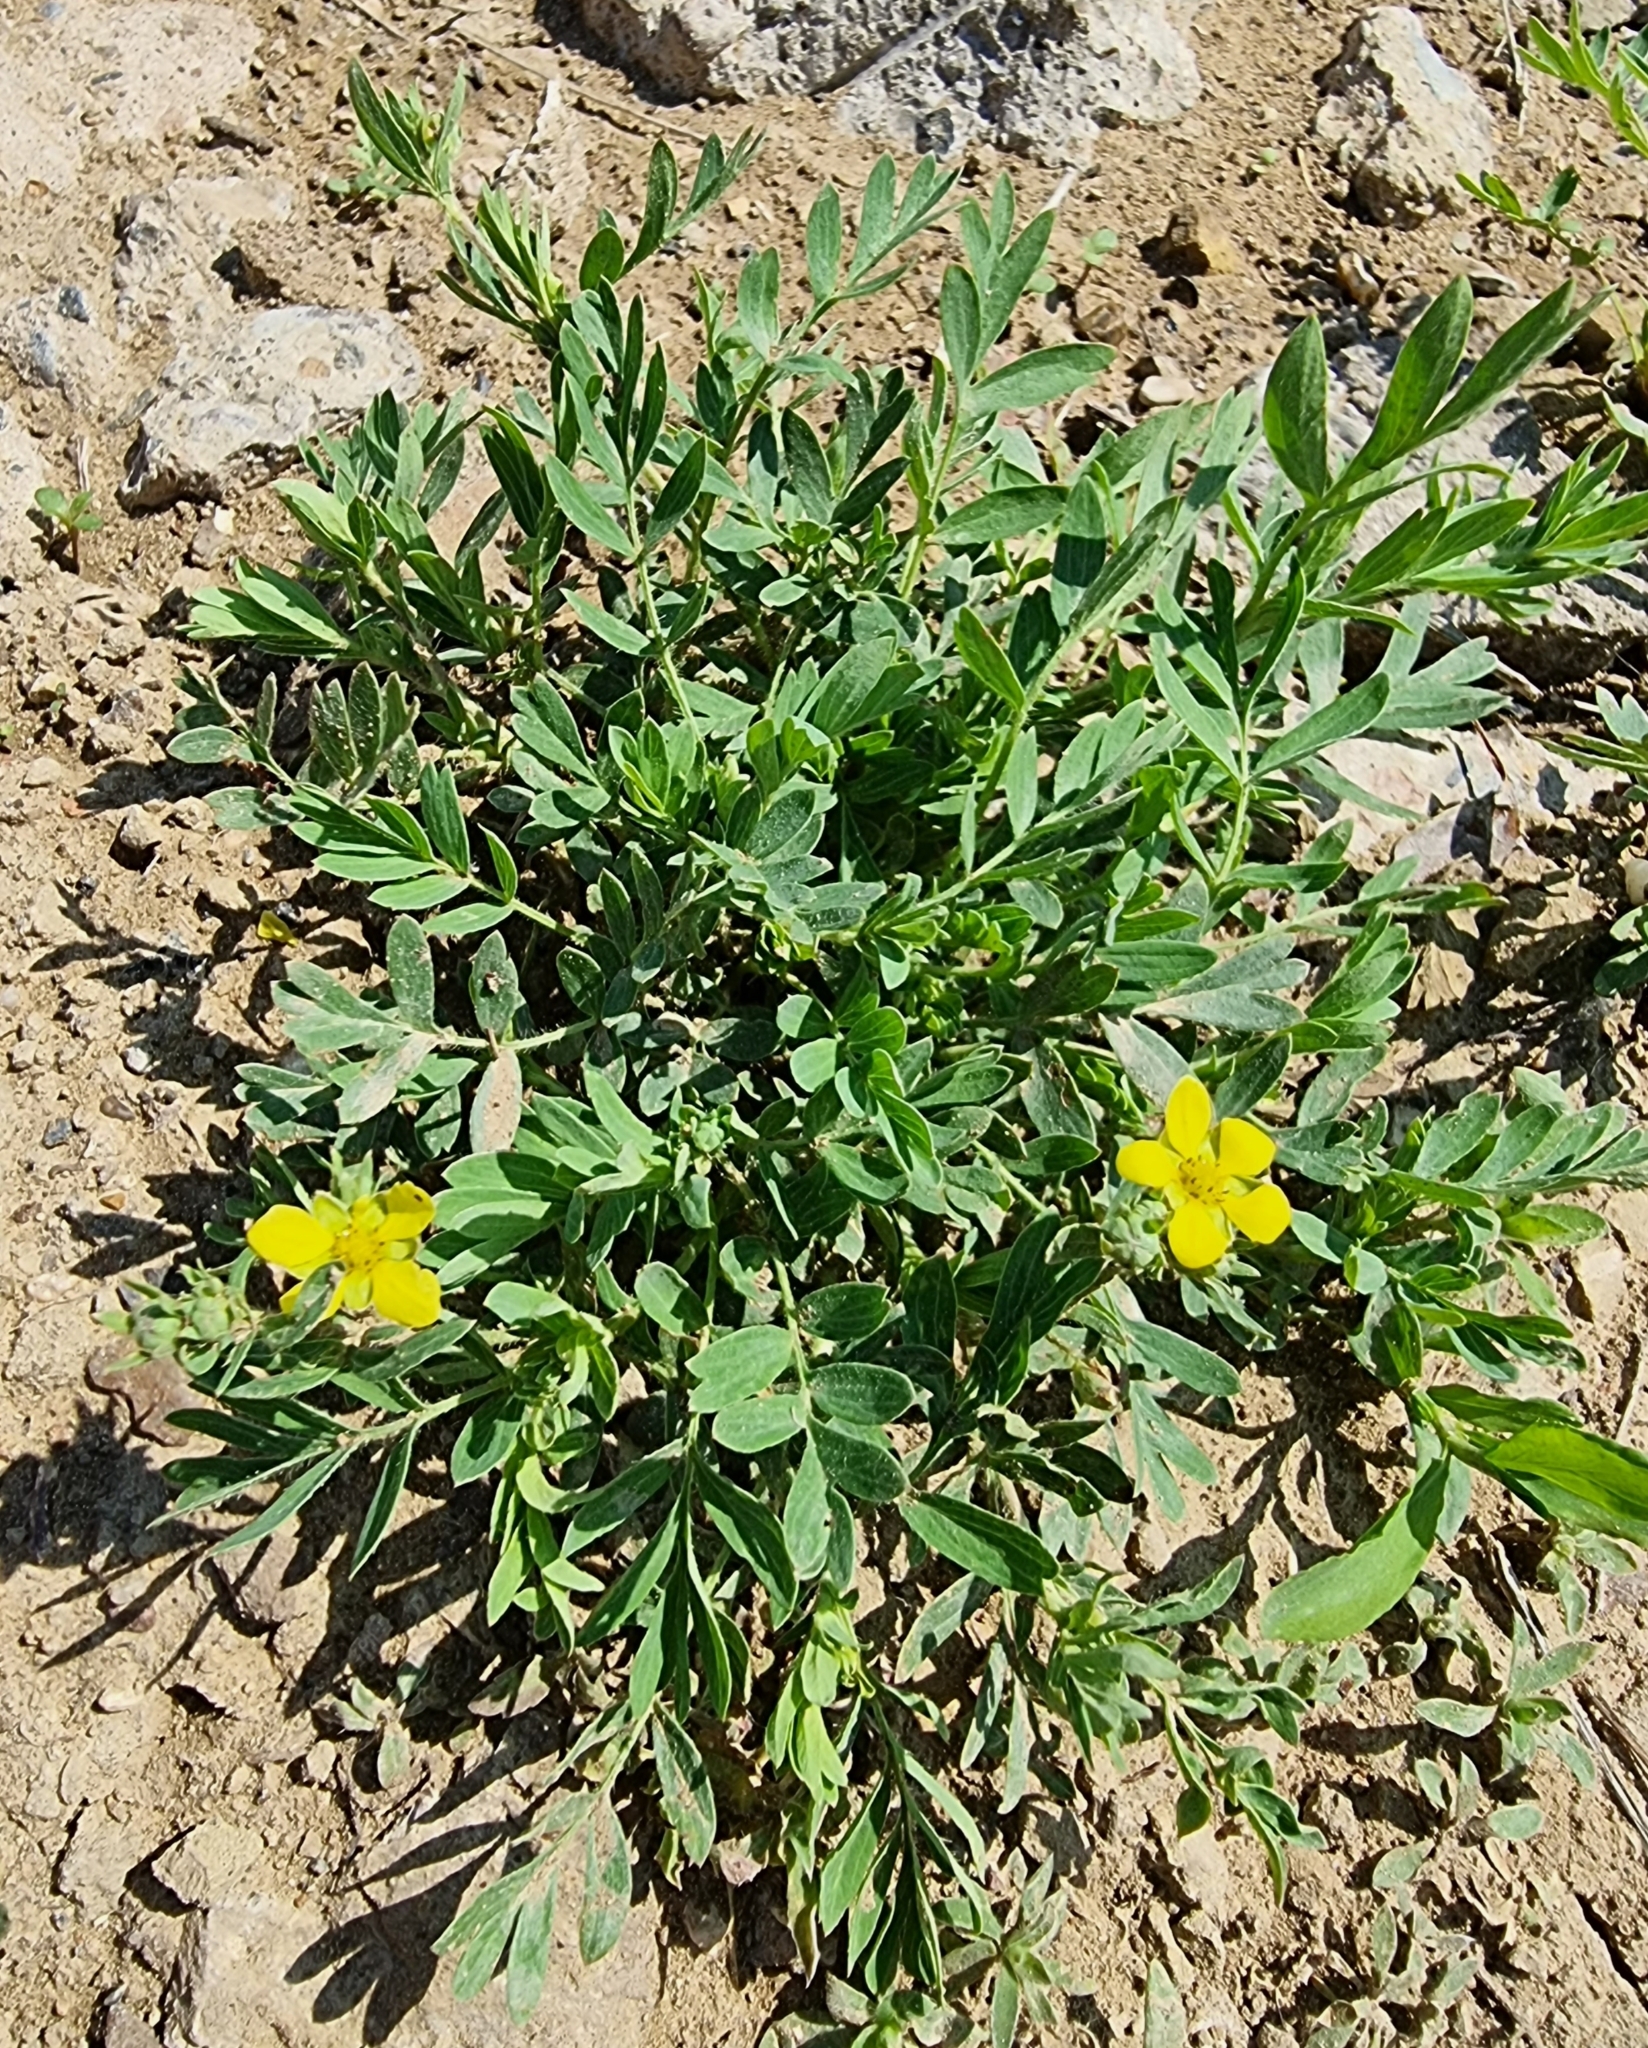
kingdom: Plantae
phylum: Tracheophyta
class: Magnoliopsida
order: Rosales
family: Rosaceae
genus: Sibbaldianthe
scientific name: Sibbaldianthe bifurca
